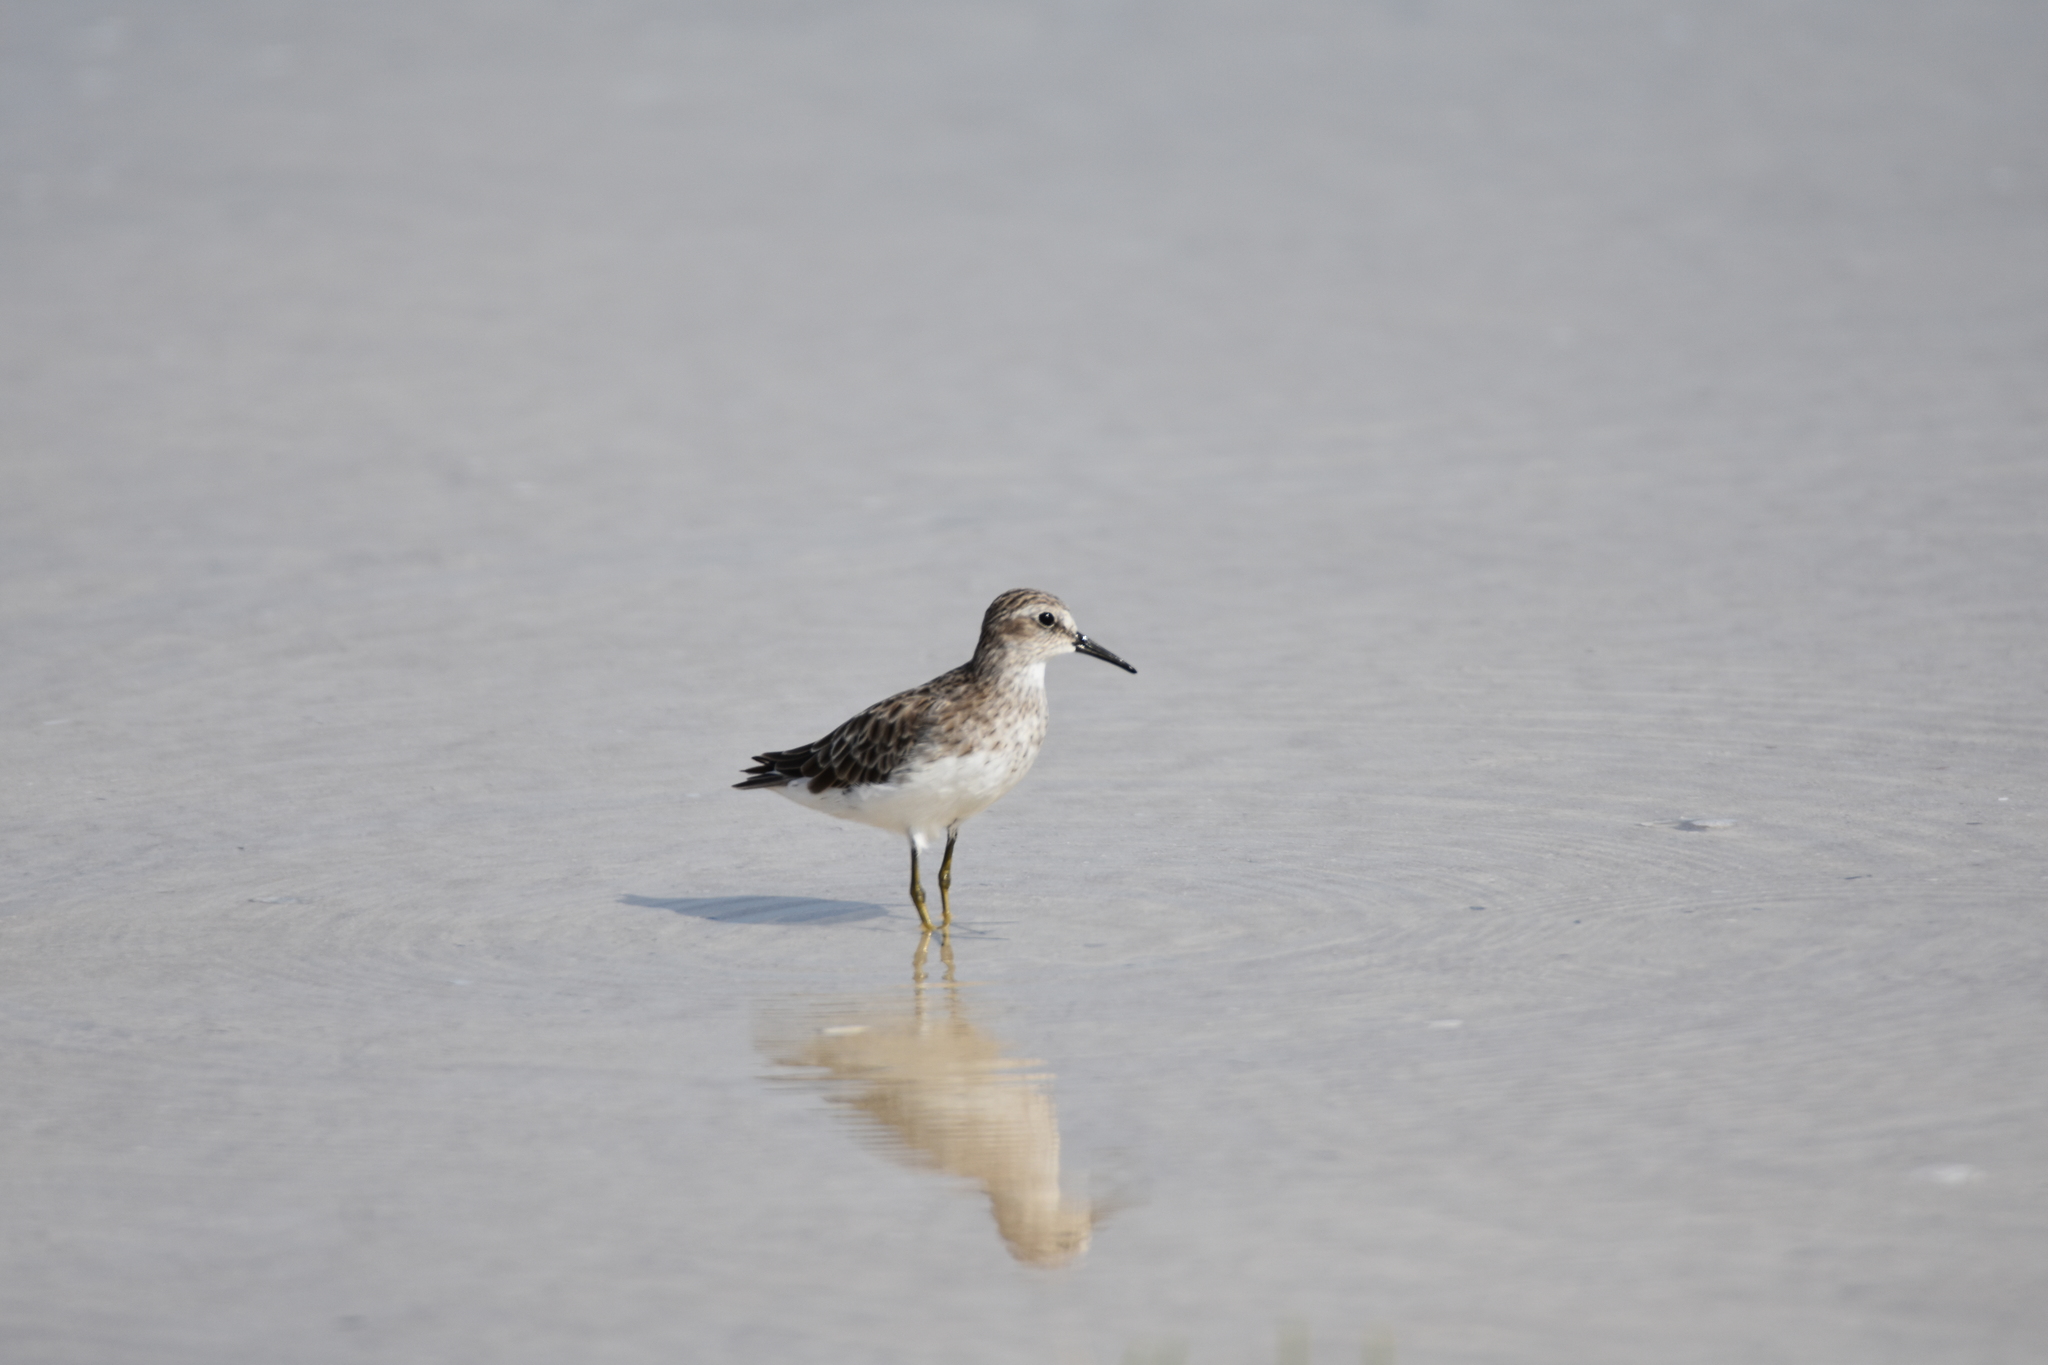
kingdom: Animalia
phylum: Chordata
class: Aves
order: Charadriiformes
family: Scolopacidae
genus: Calidris
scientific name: Calidris minutilla
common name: Least sandpiper
